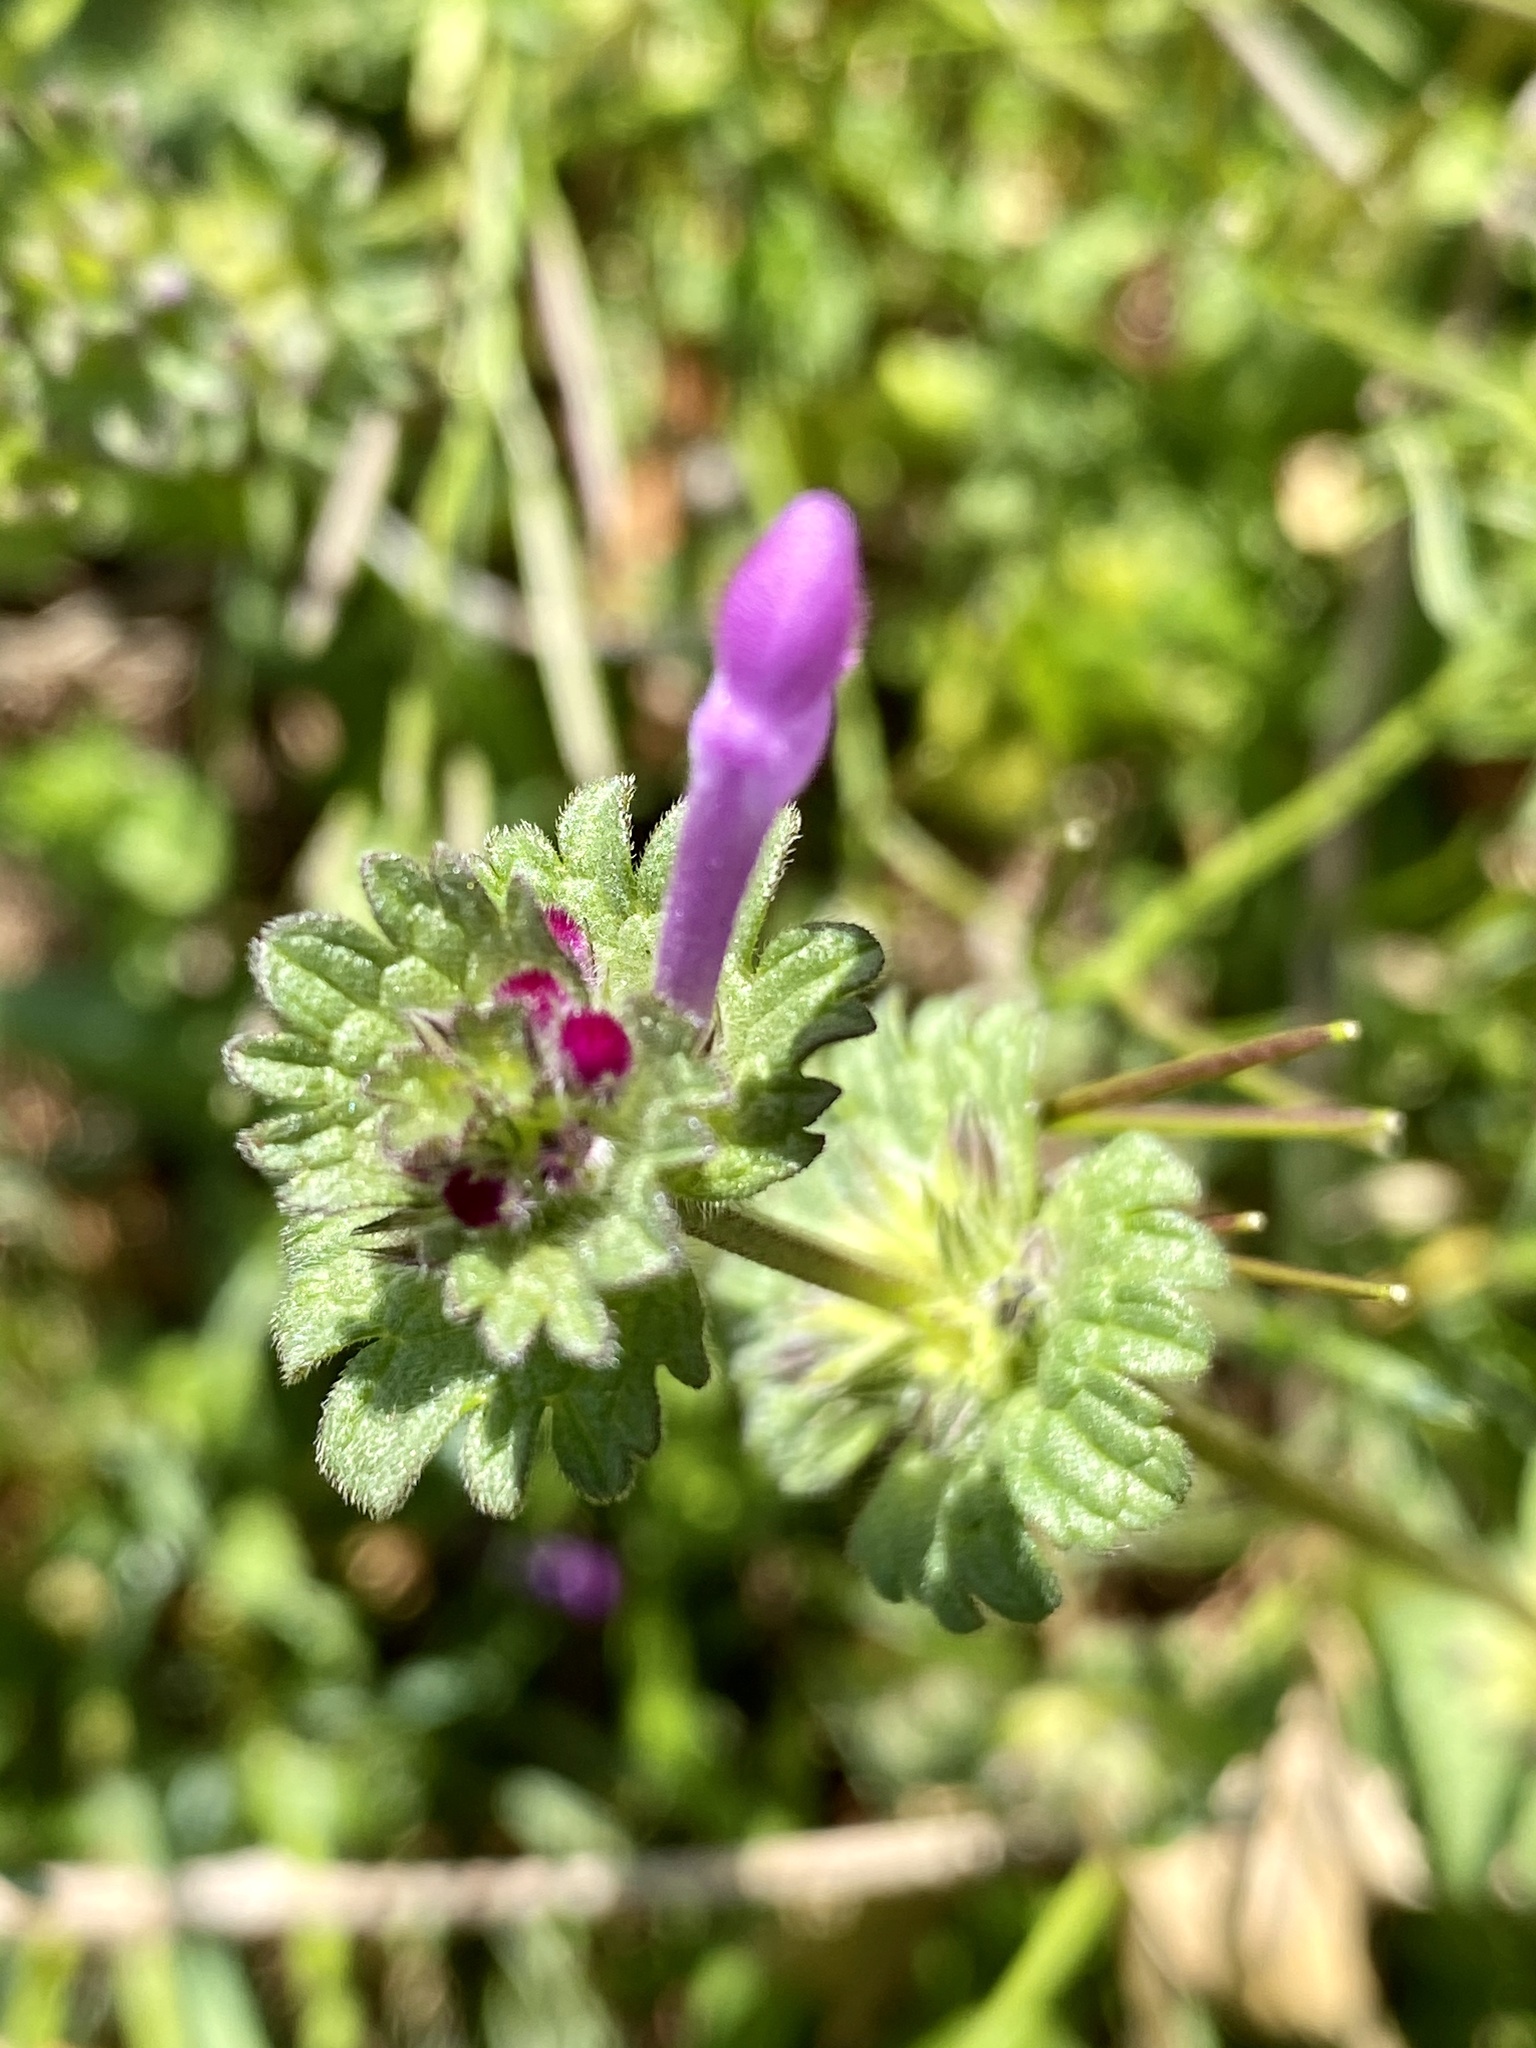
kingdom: Plantae
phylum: Tracheophyta
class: Magnoliopsida
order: Lamiales
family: Lamiaceae
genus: Lamium
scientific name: Lamium amplexicaule
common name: Henbit dead-nettle
